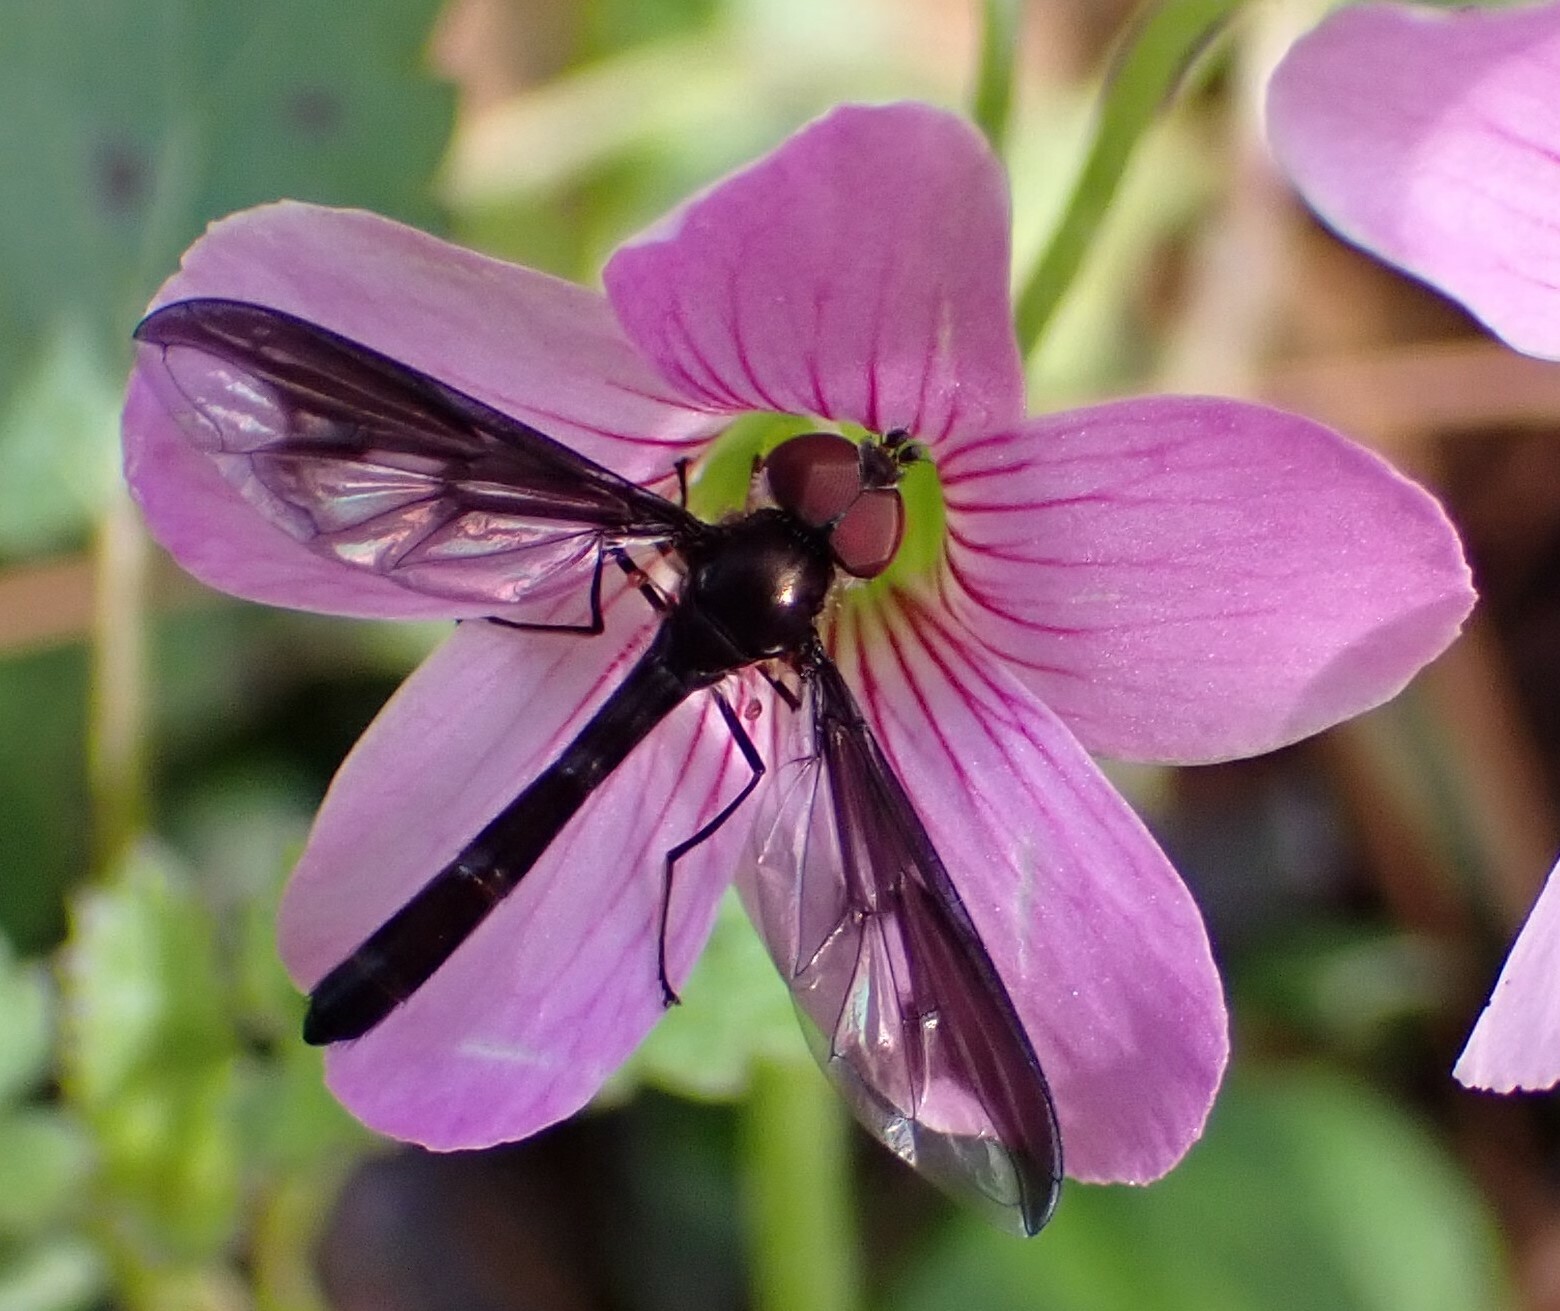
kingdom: Animalia
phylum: Arthropoda
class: Insecta
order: Diptera
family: Syrphidae
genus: Ocyptamus
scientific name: Ocyptamus fuscipennis
